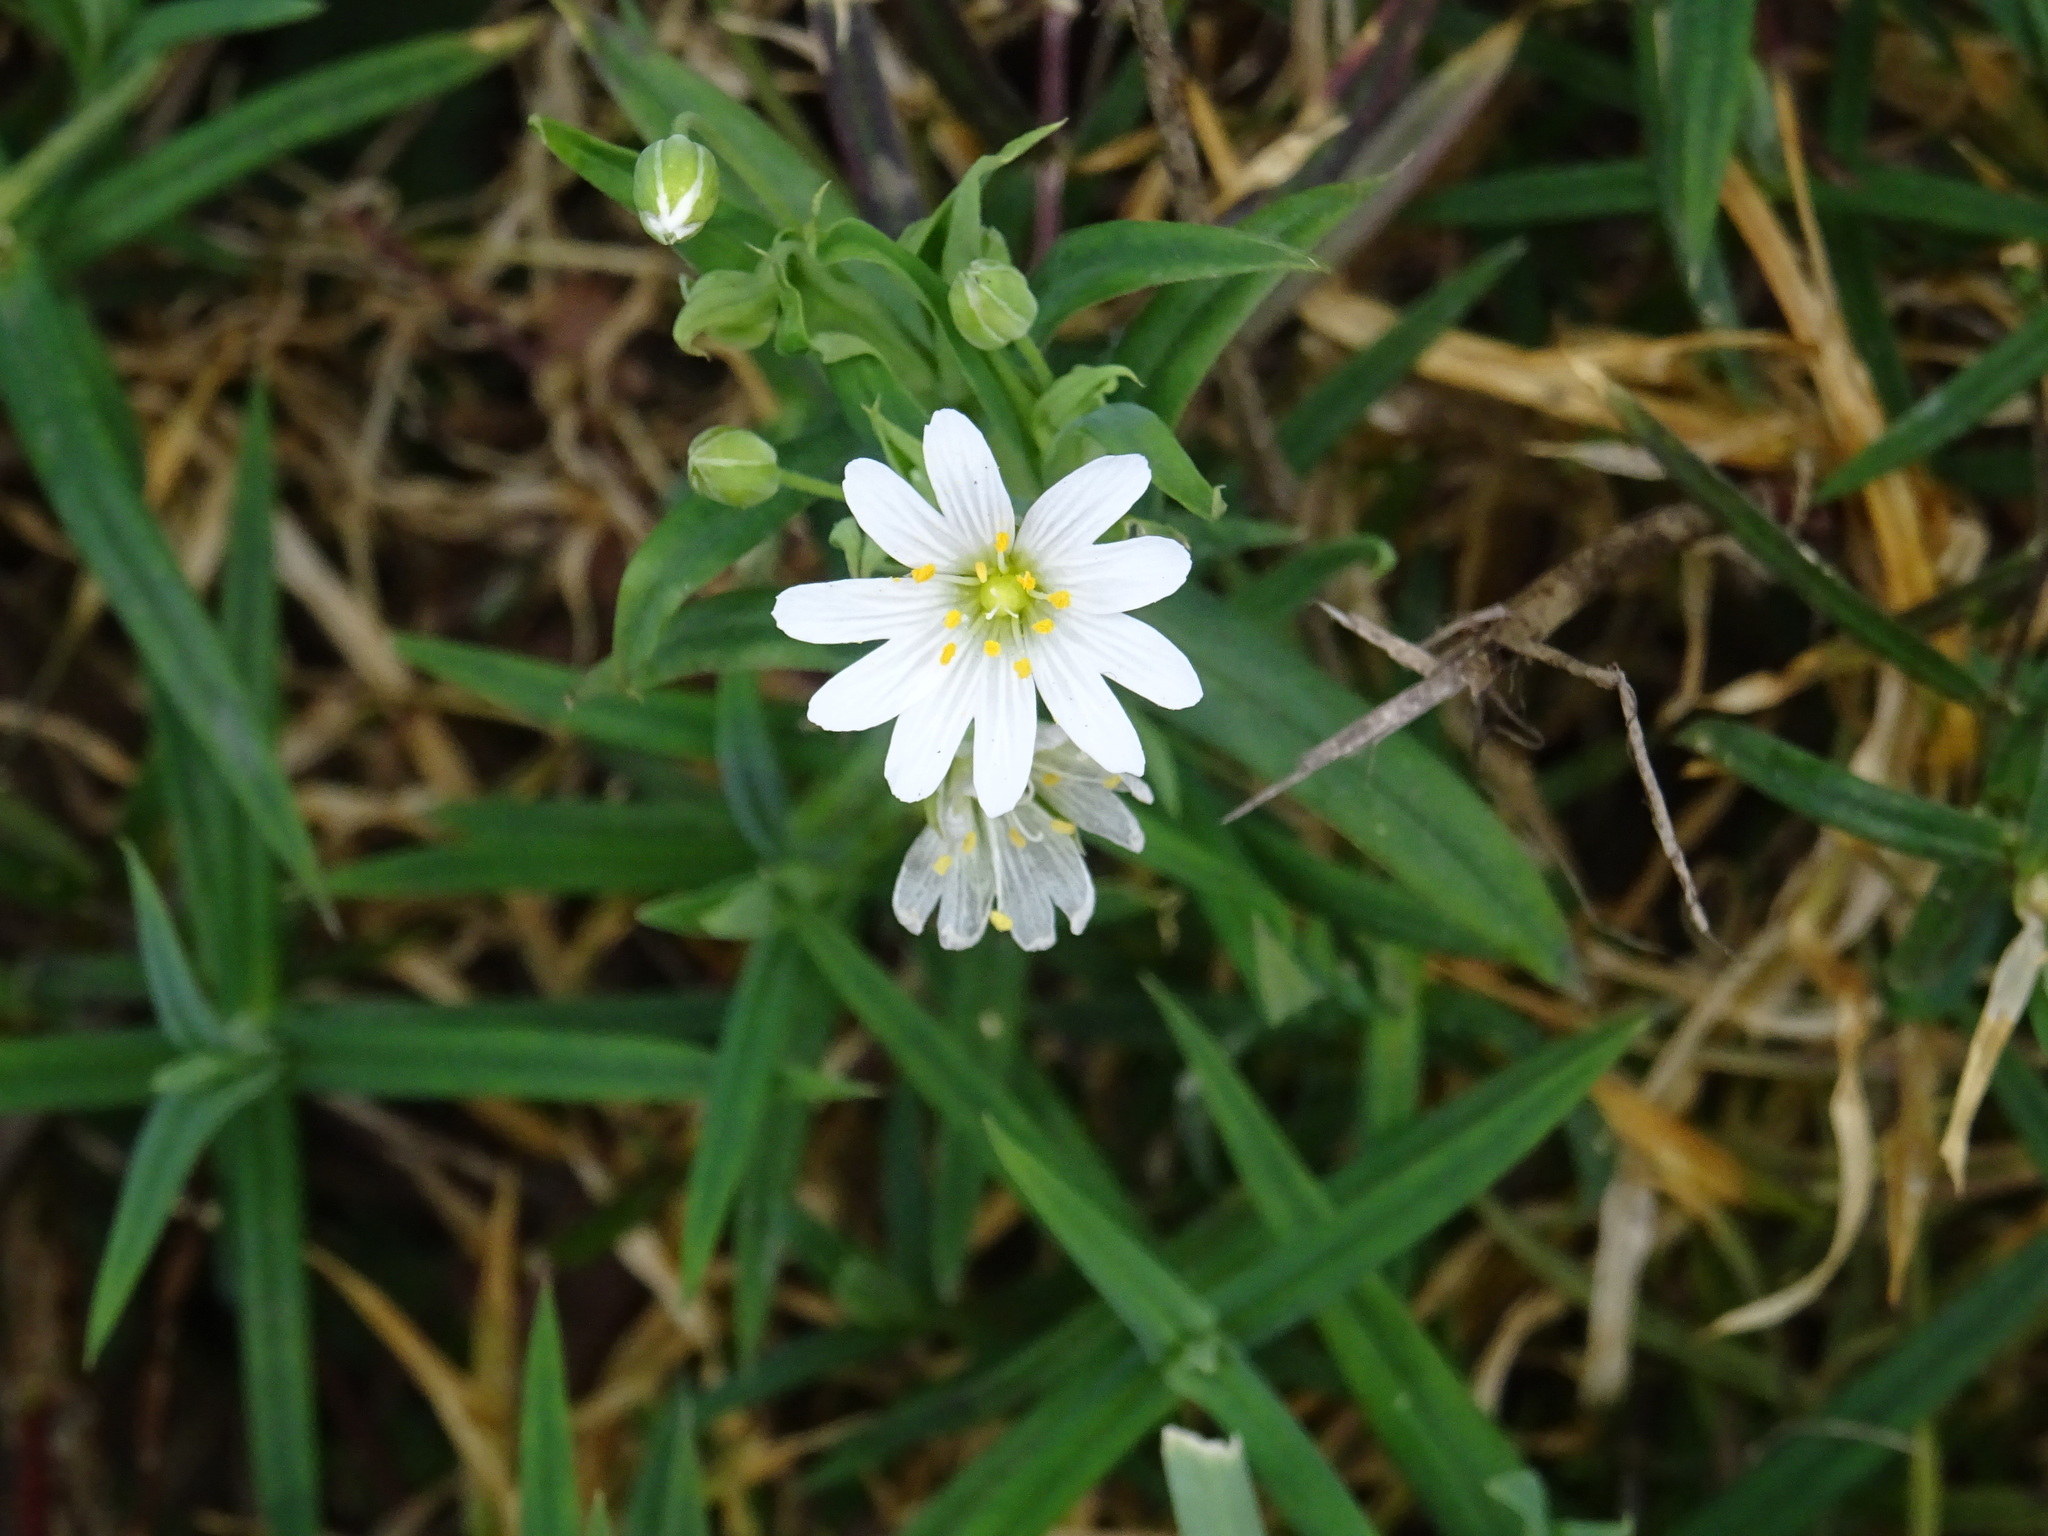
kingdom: Plantae
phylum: Tracheophyta
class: Magnoliopsida
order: Caryophyllales
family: Caryophyllaceae
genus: Rabelera
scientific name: Rabelera holostea
